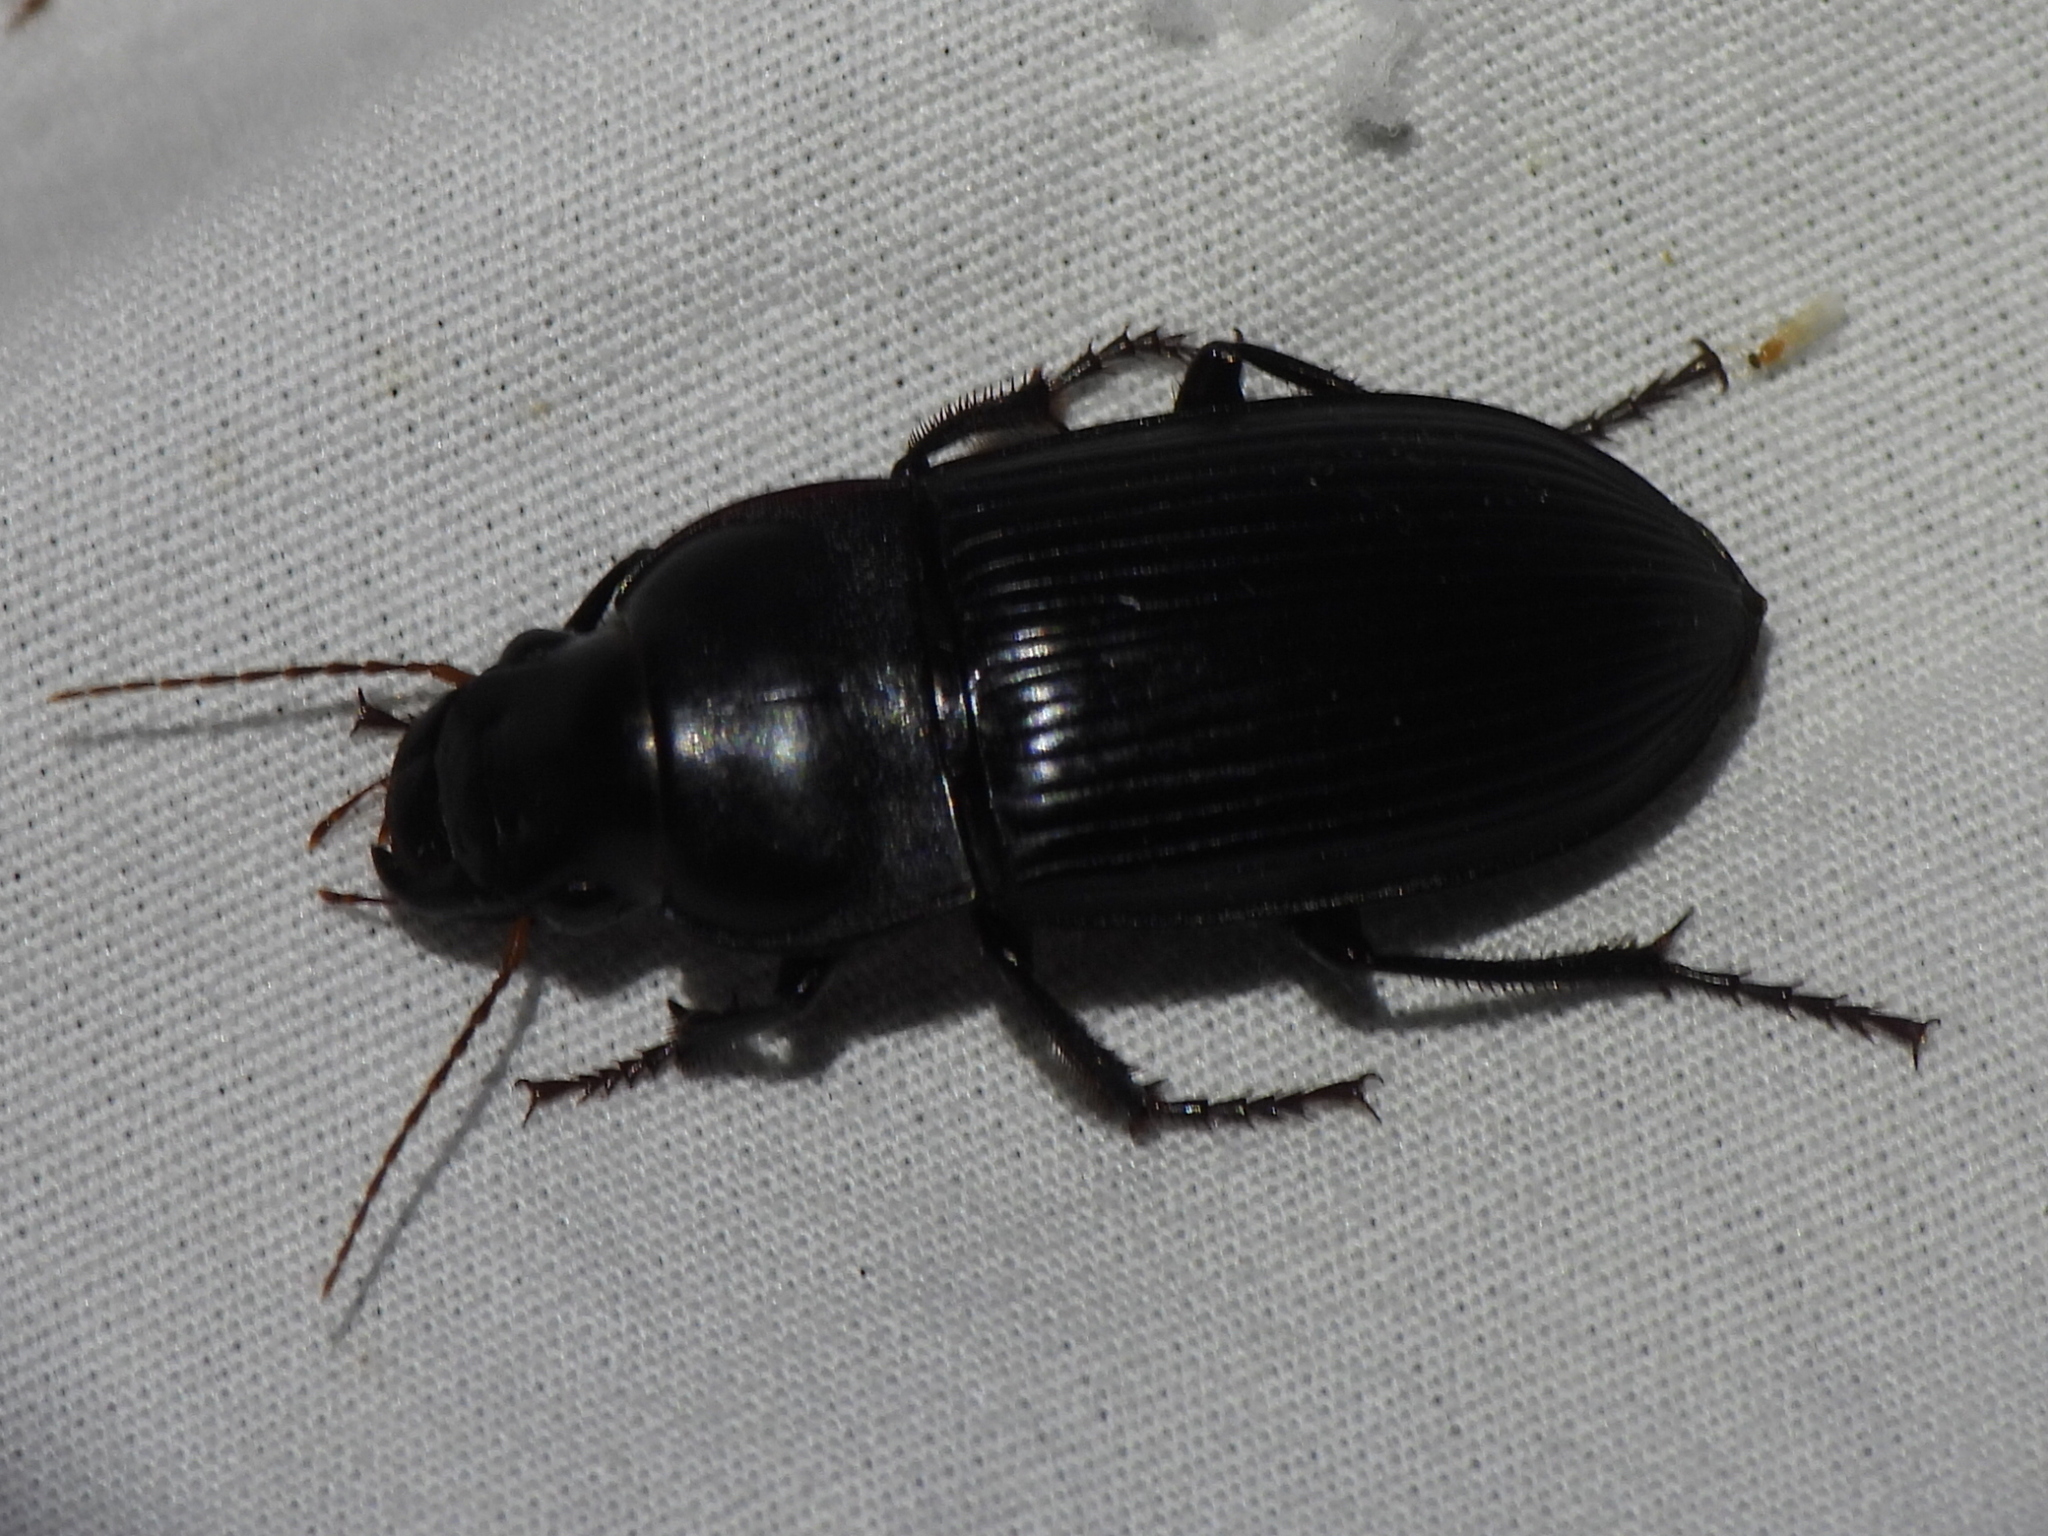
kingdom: Animalia
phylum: Arthropoda
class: Insecta
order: Coleoptera
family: Carabidae
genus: Harpalus
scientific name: Harpalus caliginosus
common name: Murky ground beetle
